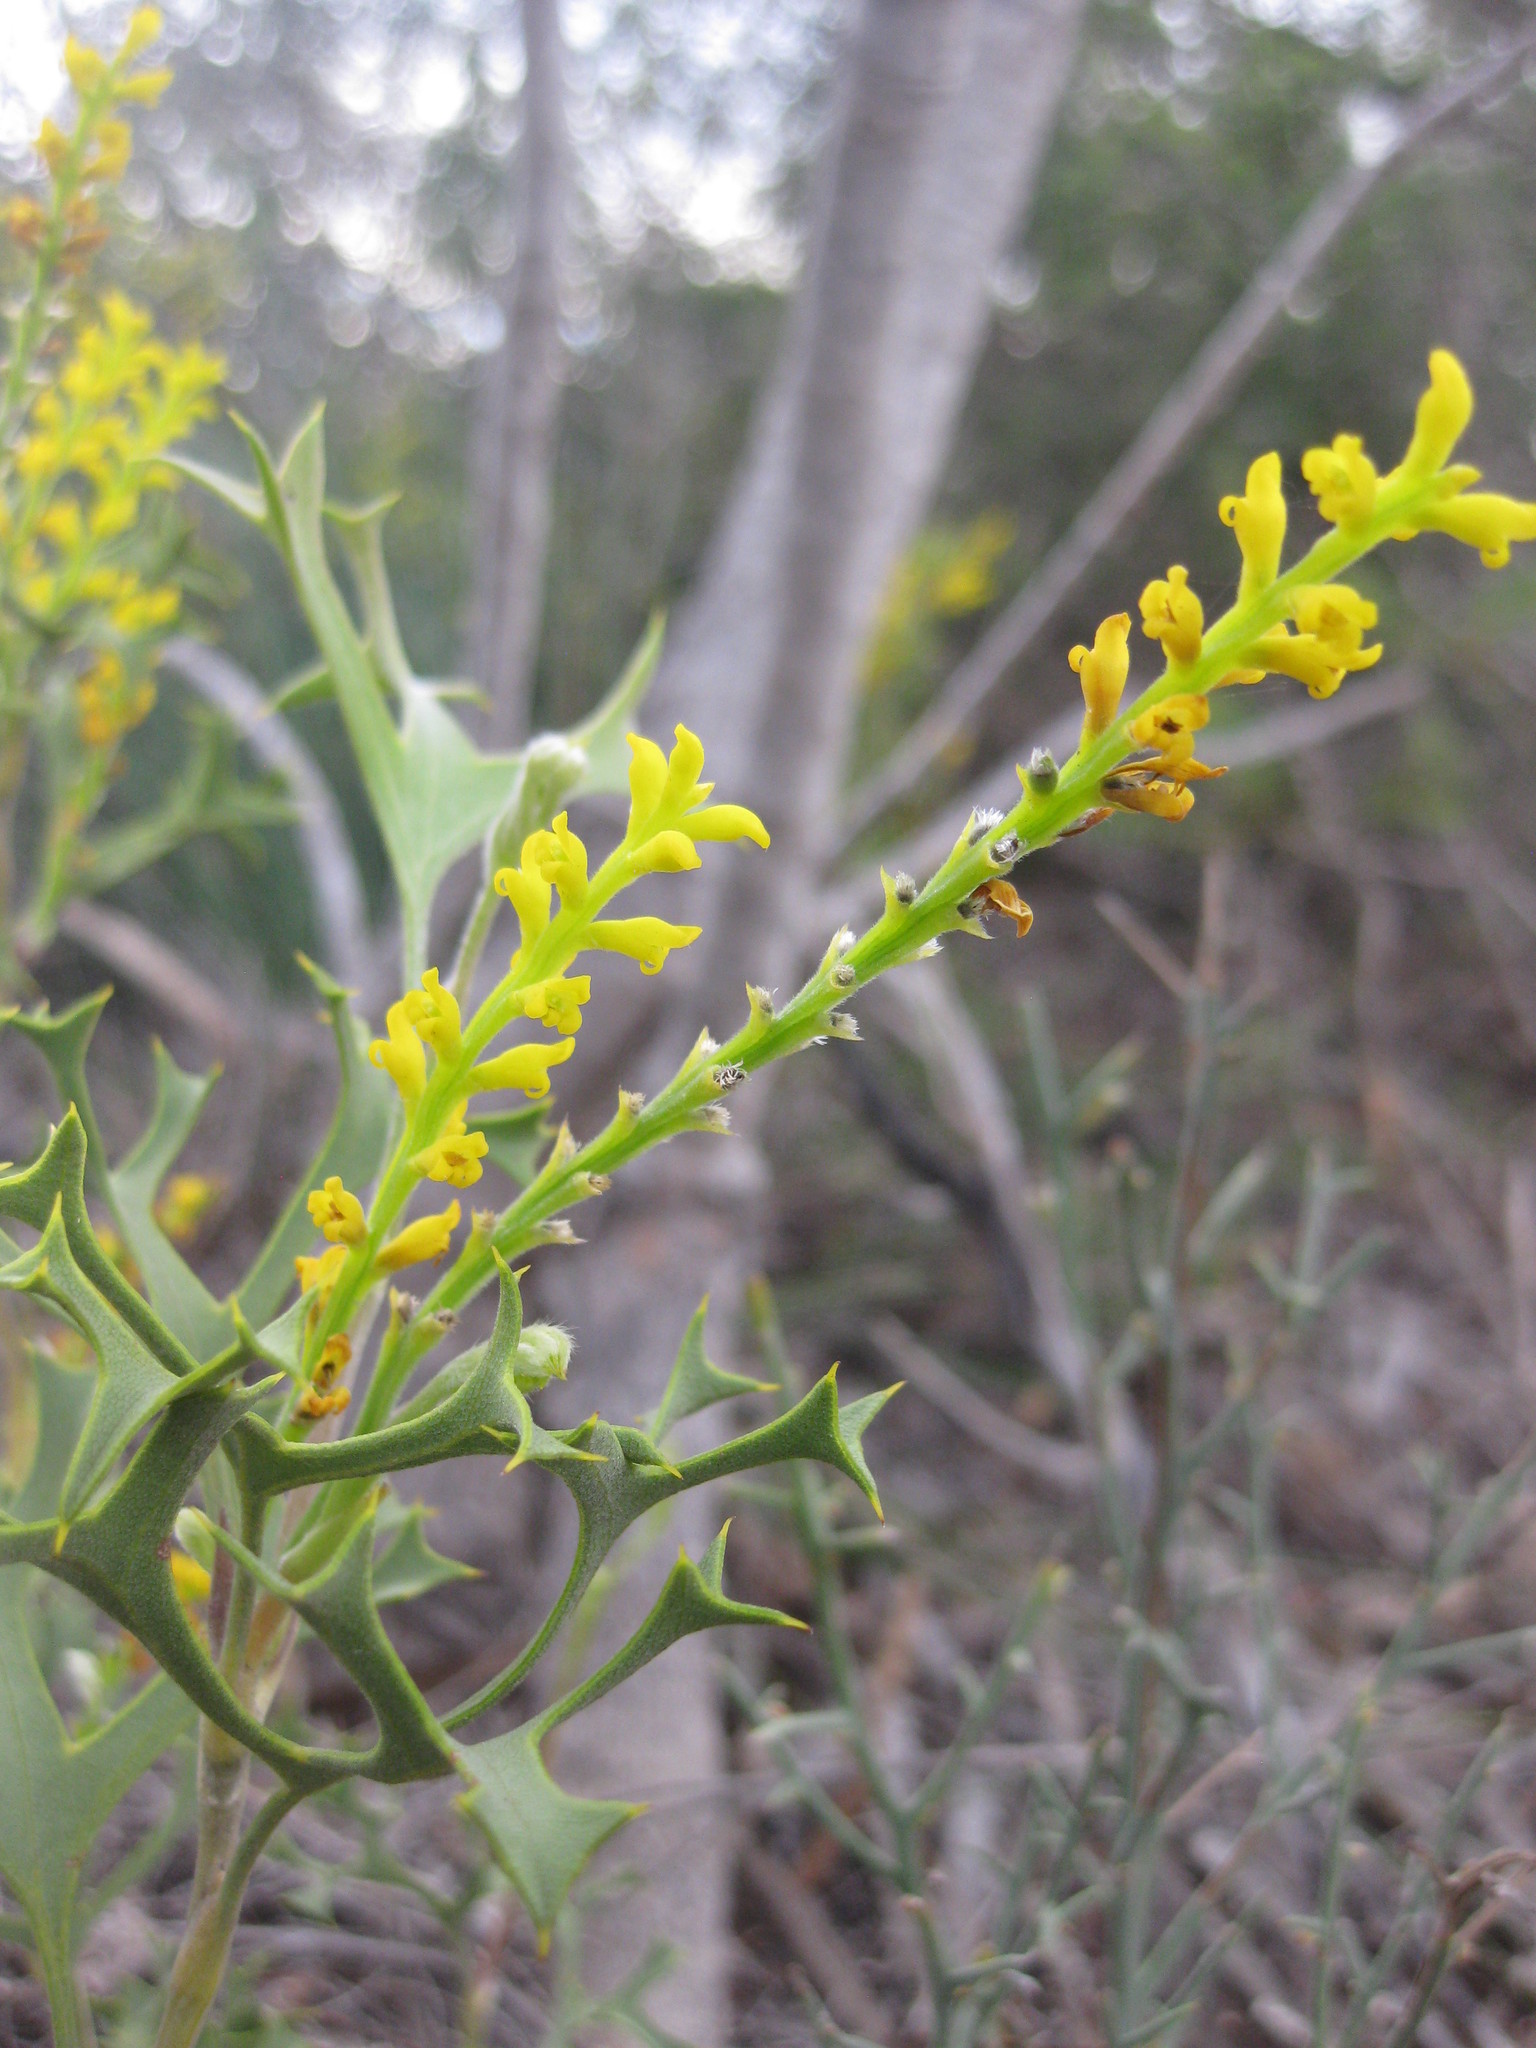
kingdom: Plantae
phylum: Tracheophyta
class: Magnoliopsida
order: Proteales
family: Proteaceae
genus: Synaphea
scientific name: Synaphea spinulosa
